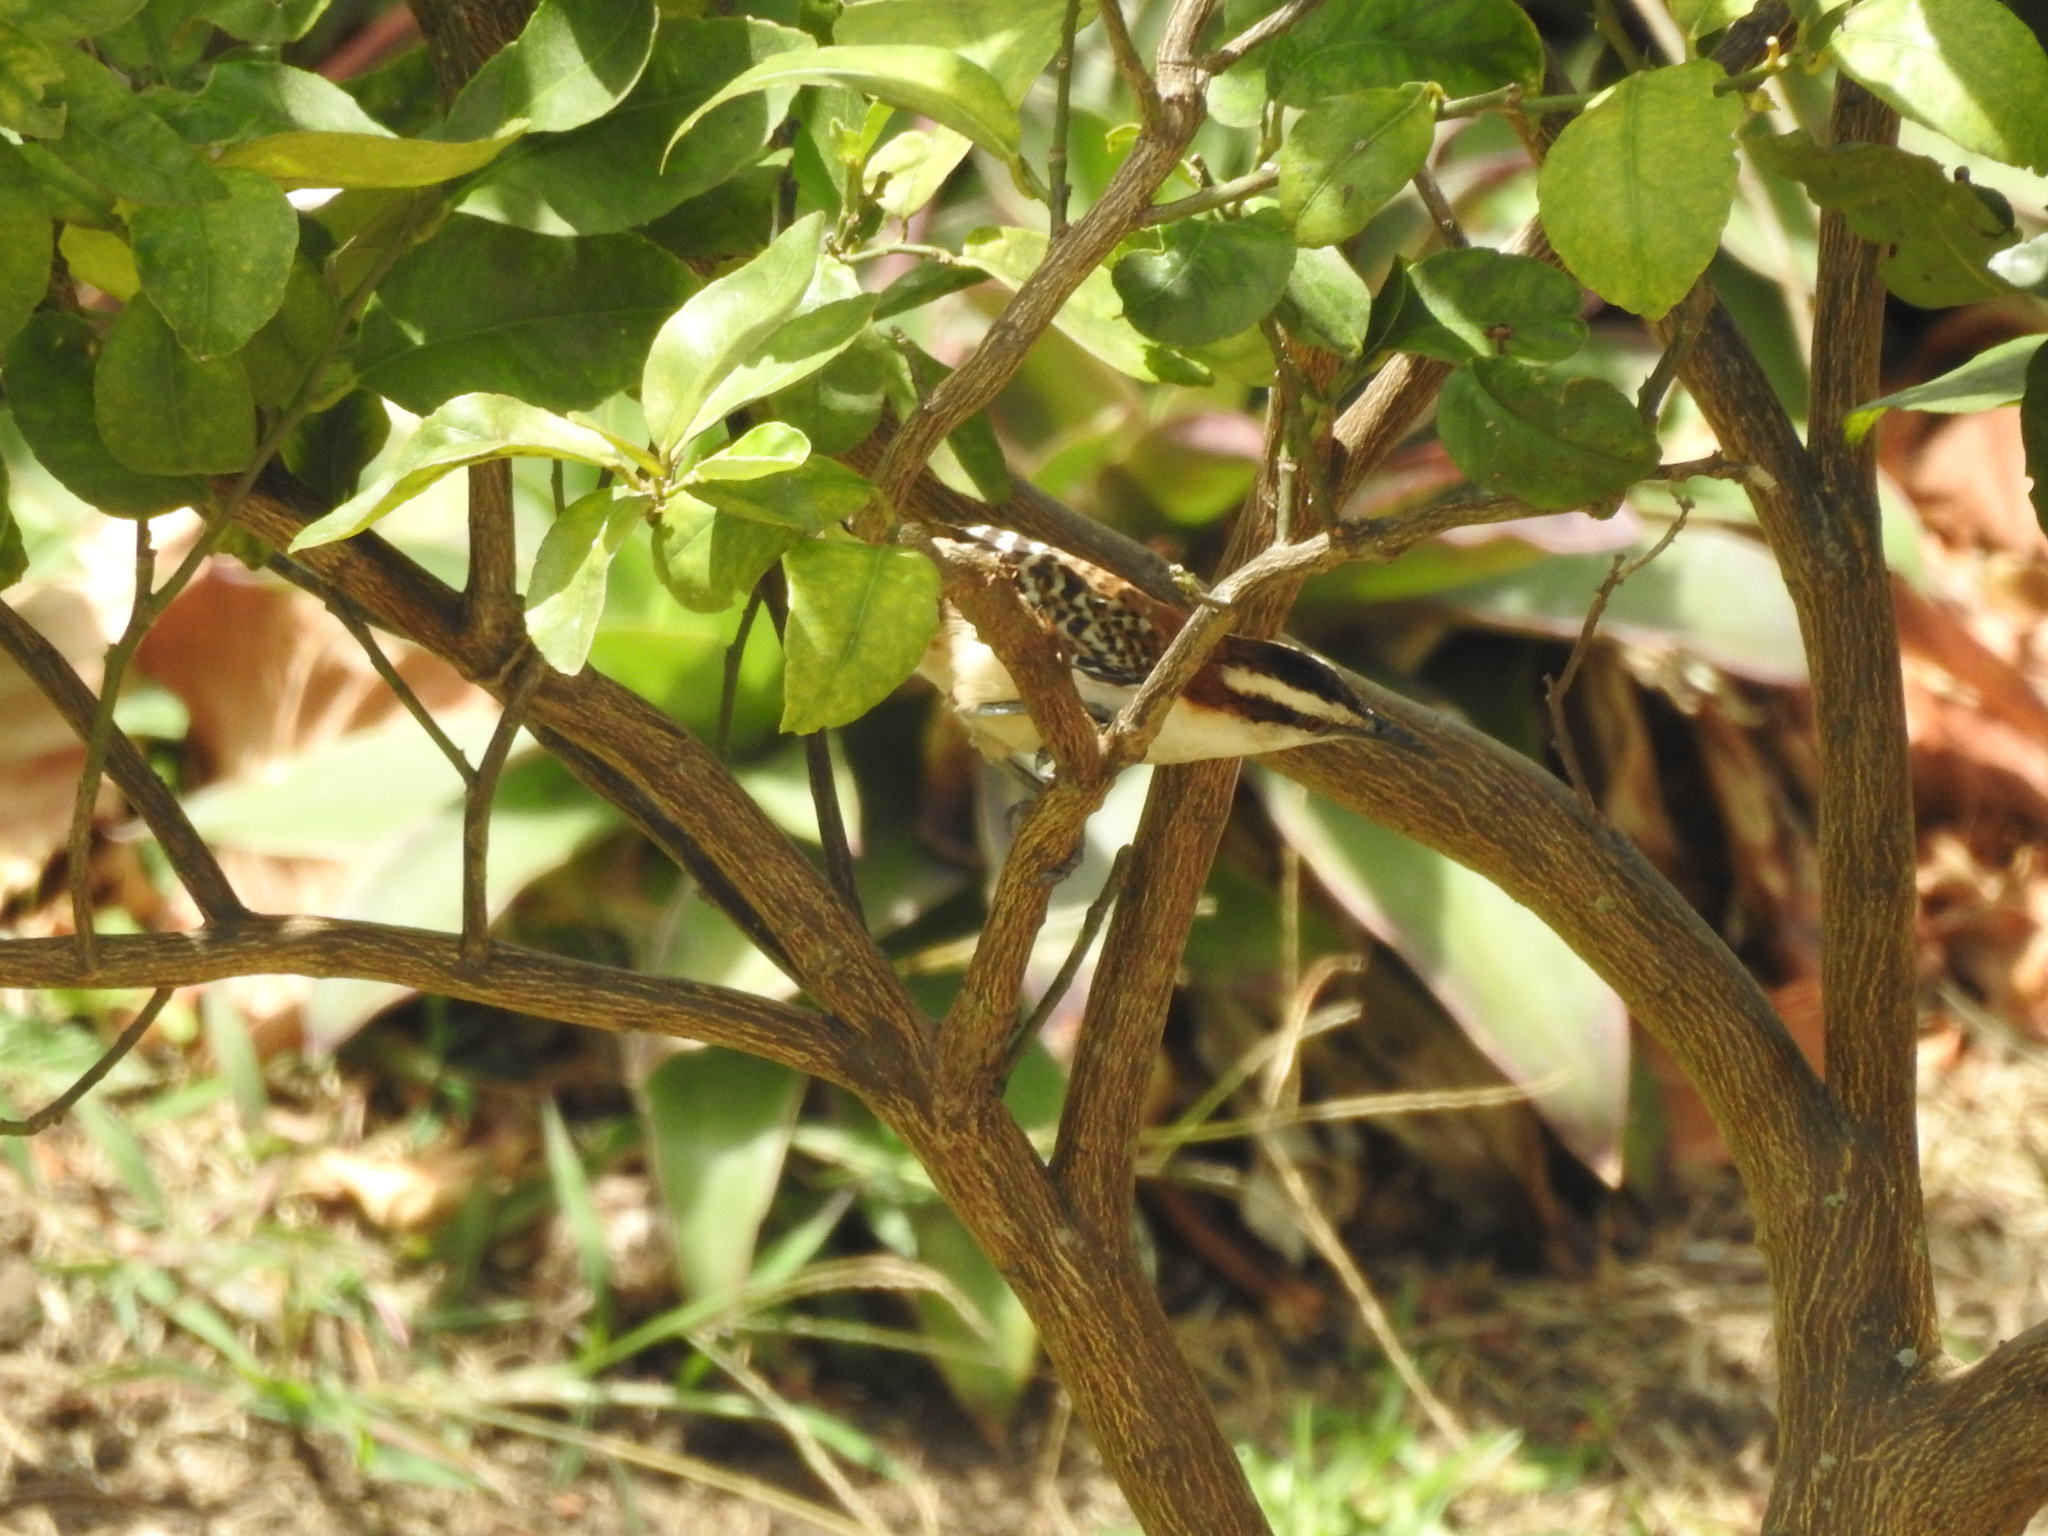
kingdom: Animalia
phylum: Chordata
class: Aves
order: Passeriformes
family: Troglodytidae
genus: Campylorhynchus
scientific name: Campylorhynchus rufinucha
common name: Rufous-naped wren
